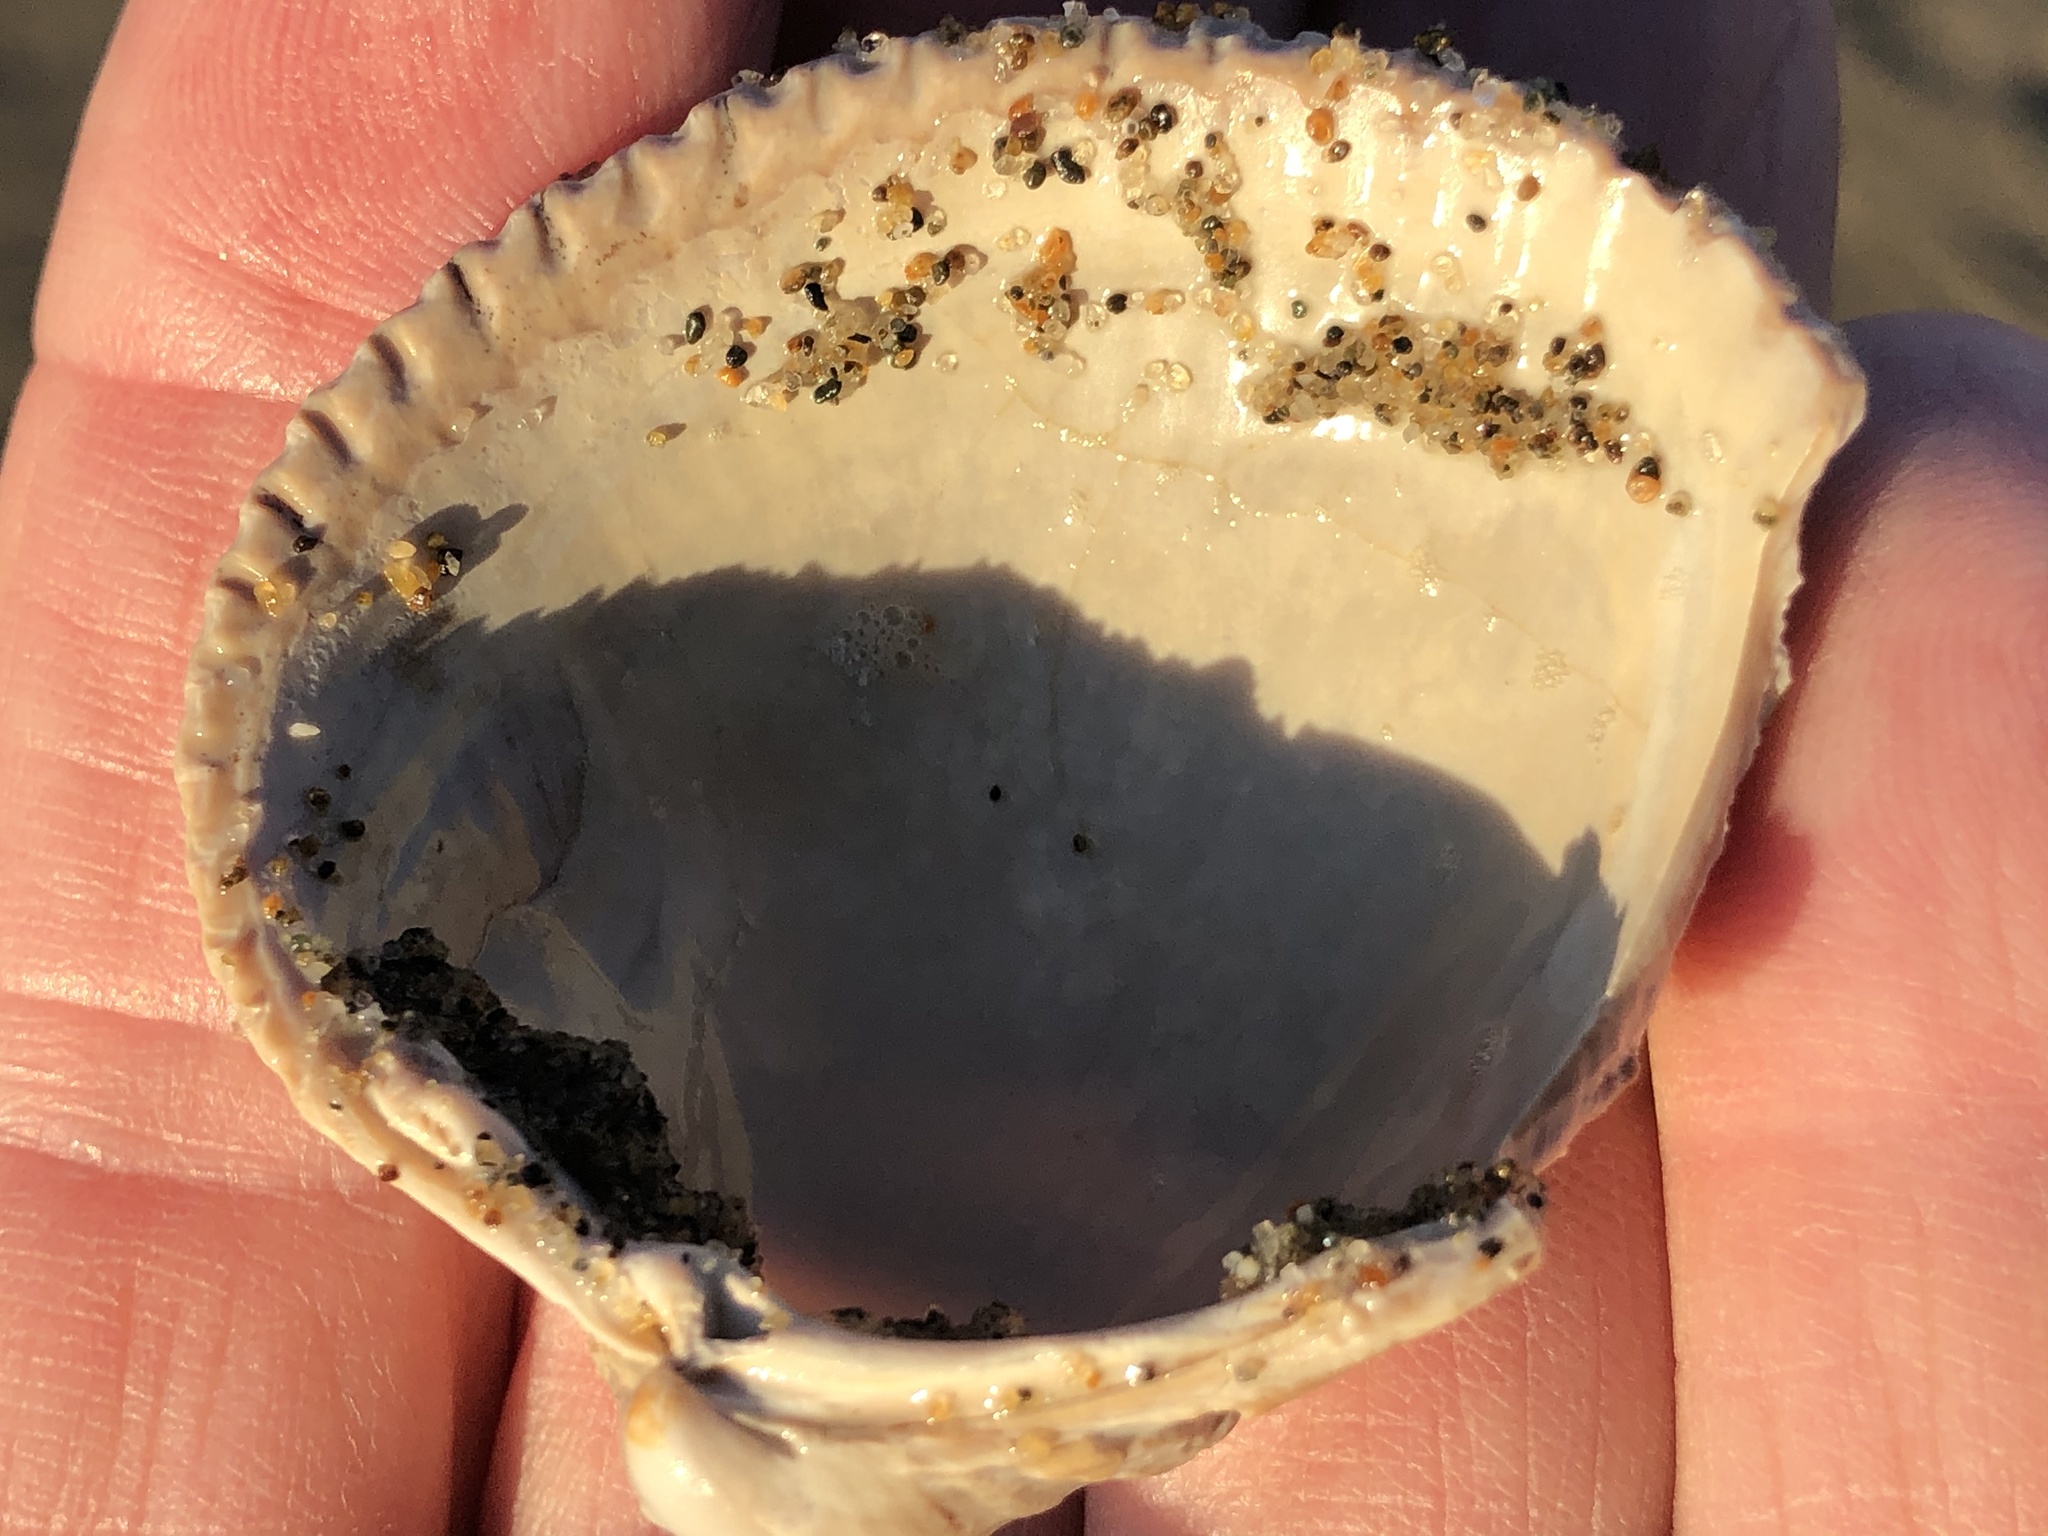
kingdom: Animalia
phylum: Mollusca
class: Bivalvia
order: Cardiida
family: Cardiidae
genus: Clinocardium
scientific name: Clinocardium nuttallii
